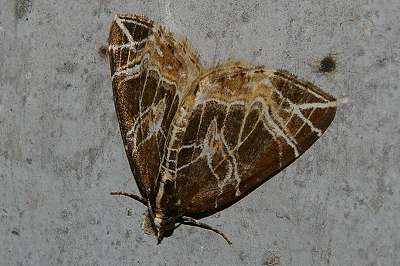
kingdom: Animalia
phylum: Arthropoda
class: Insecta
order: Lepidoptera
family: Geometridae
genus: Evecliptopera
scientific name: Evecliptopera illitata
